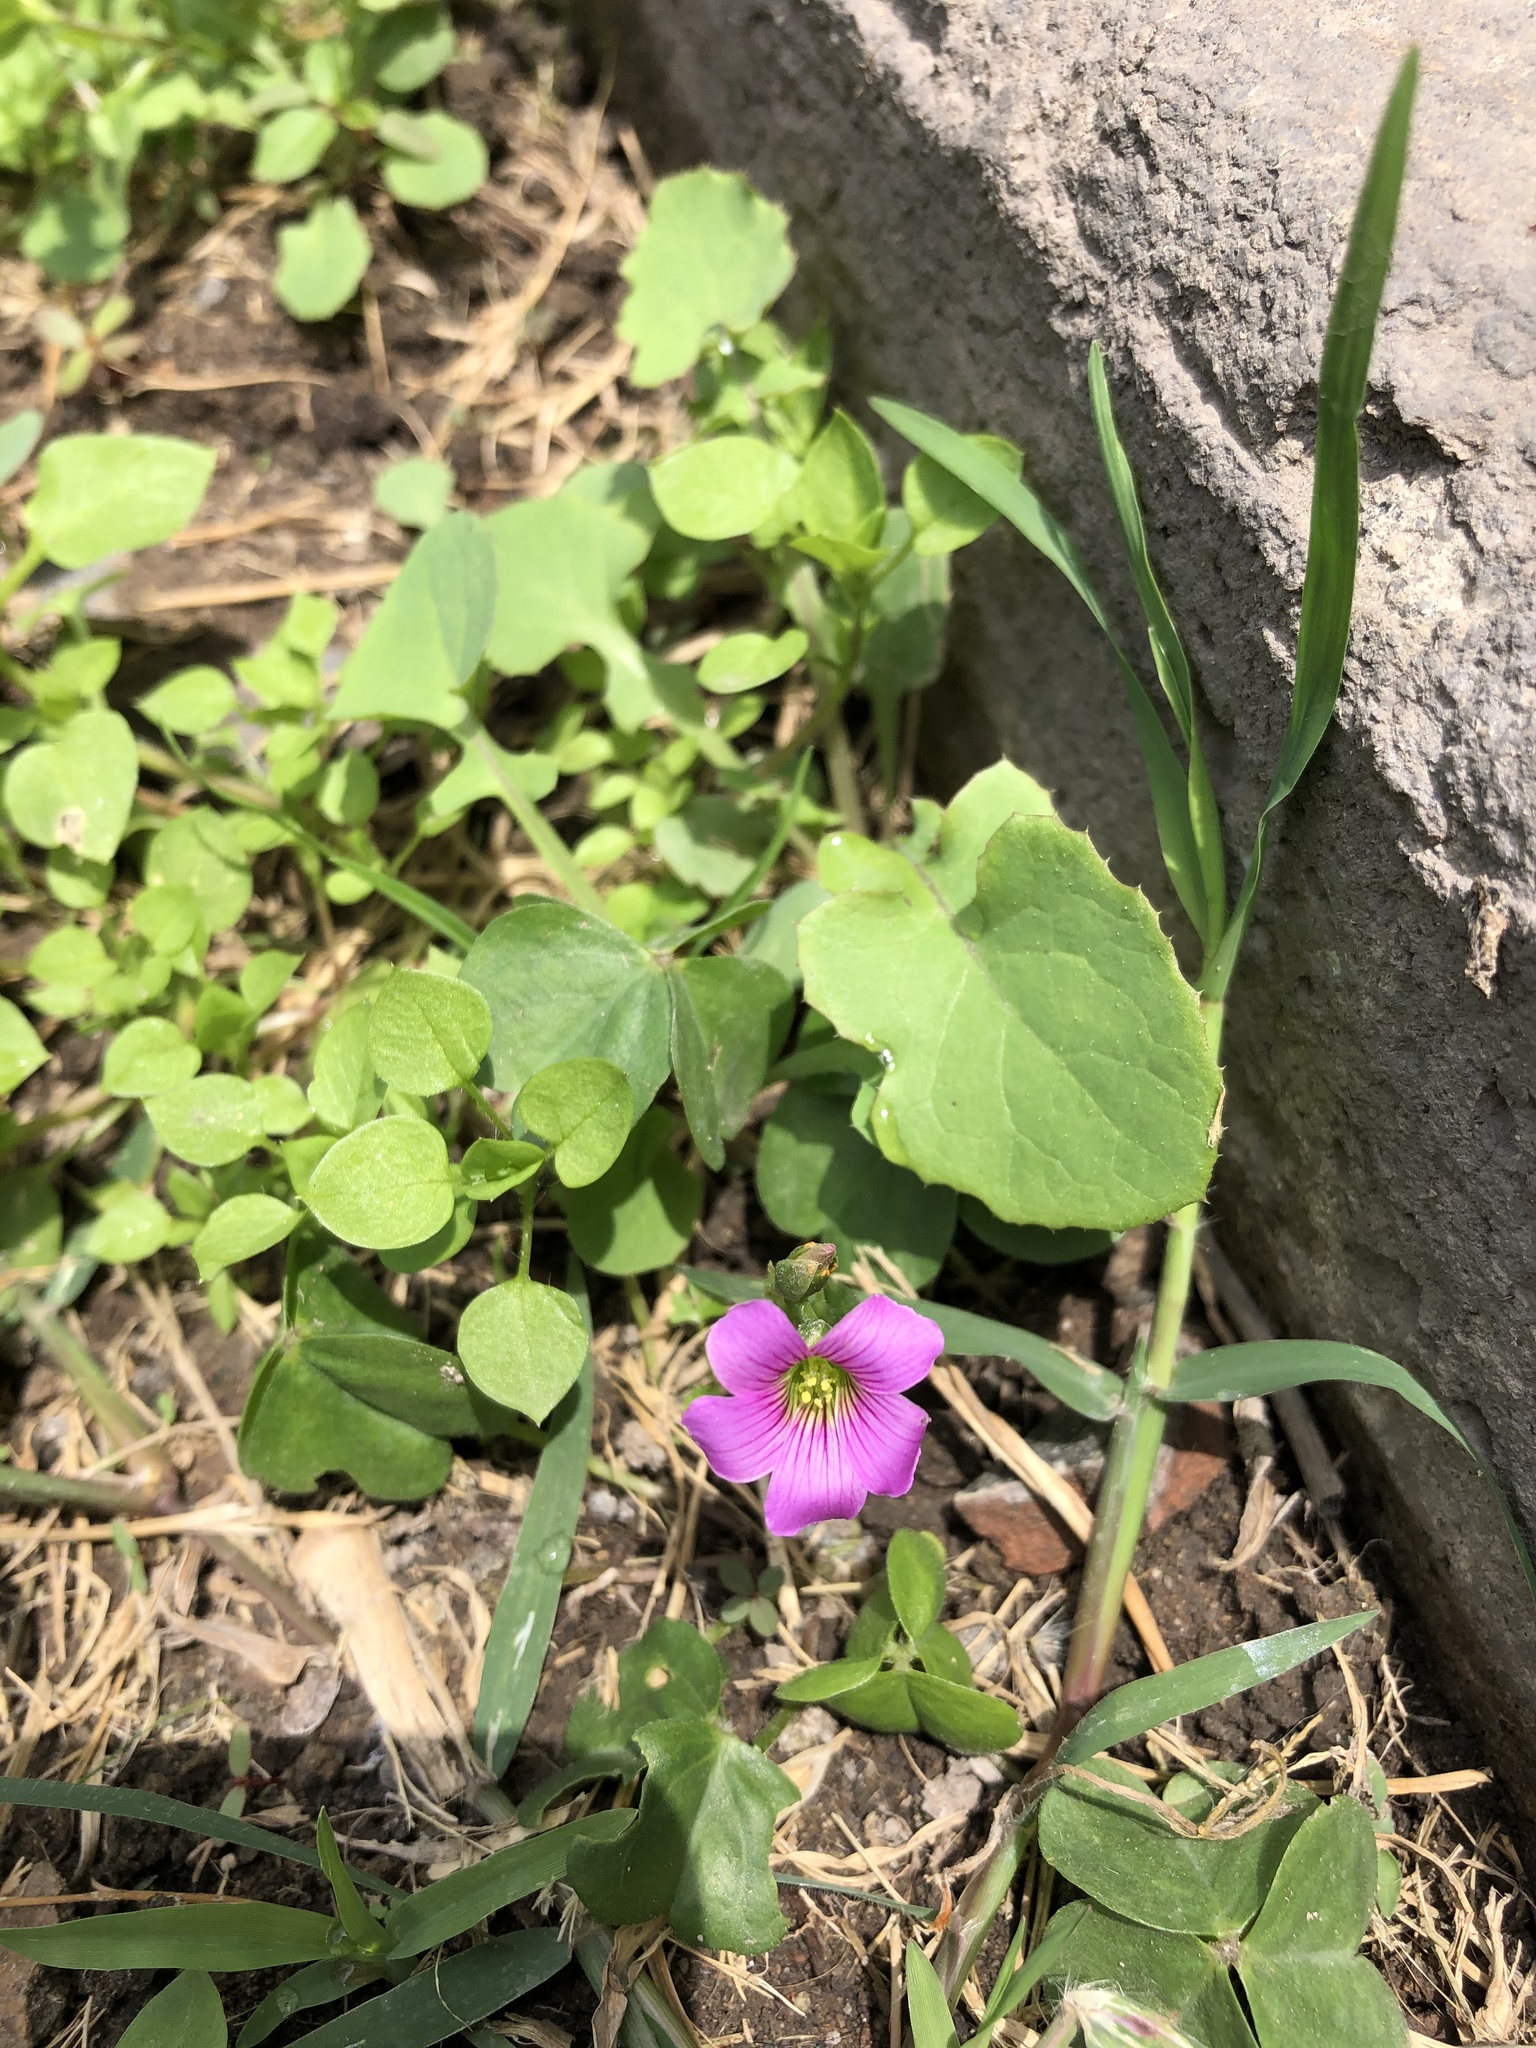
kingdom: Plantae
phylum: Tracheophyta
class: Magnoliopsida
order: Oxalidales
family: Oxalidaceae
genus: Oxalis
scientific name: Oxalis debilis
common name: Large-flowered pink-sorrel
